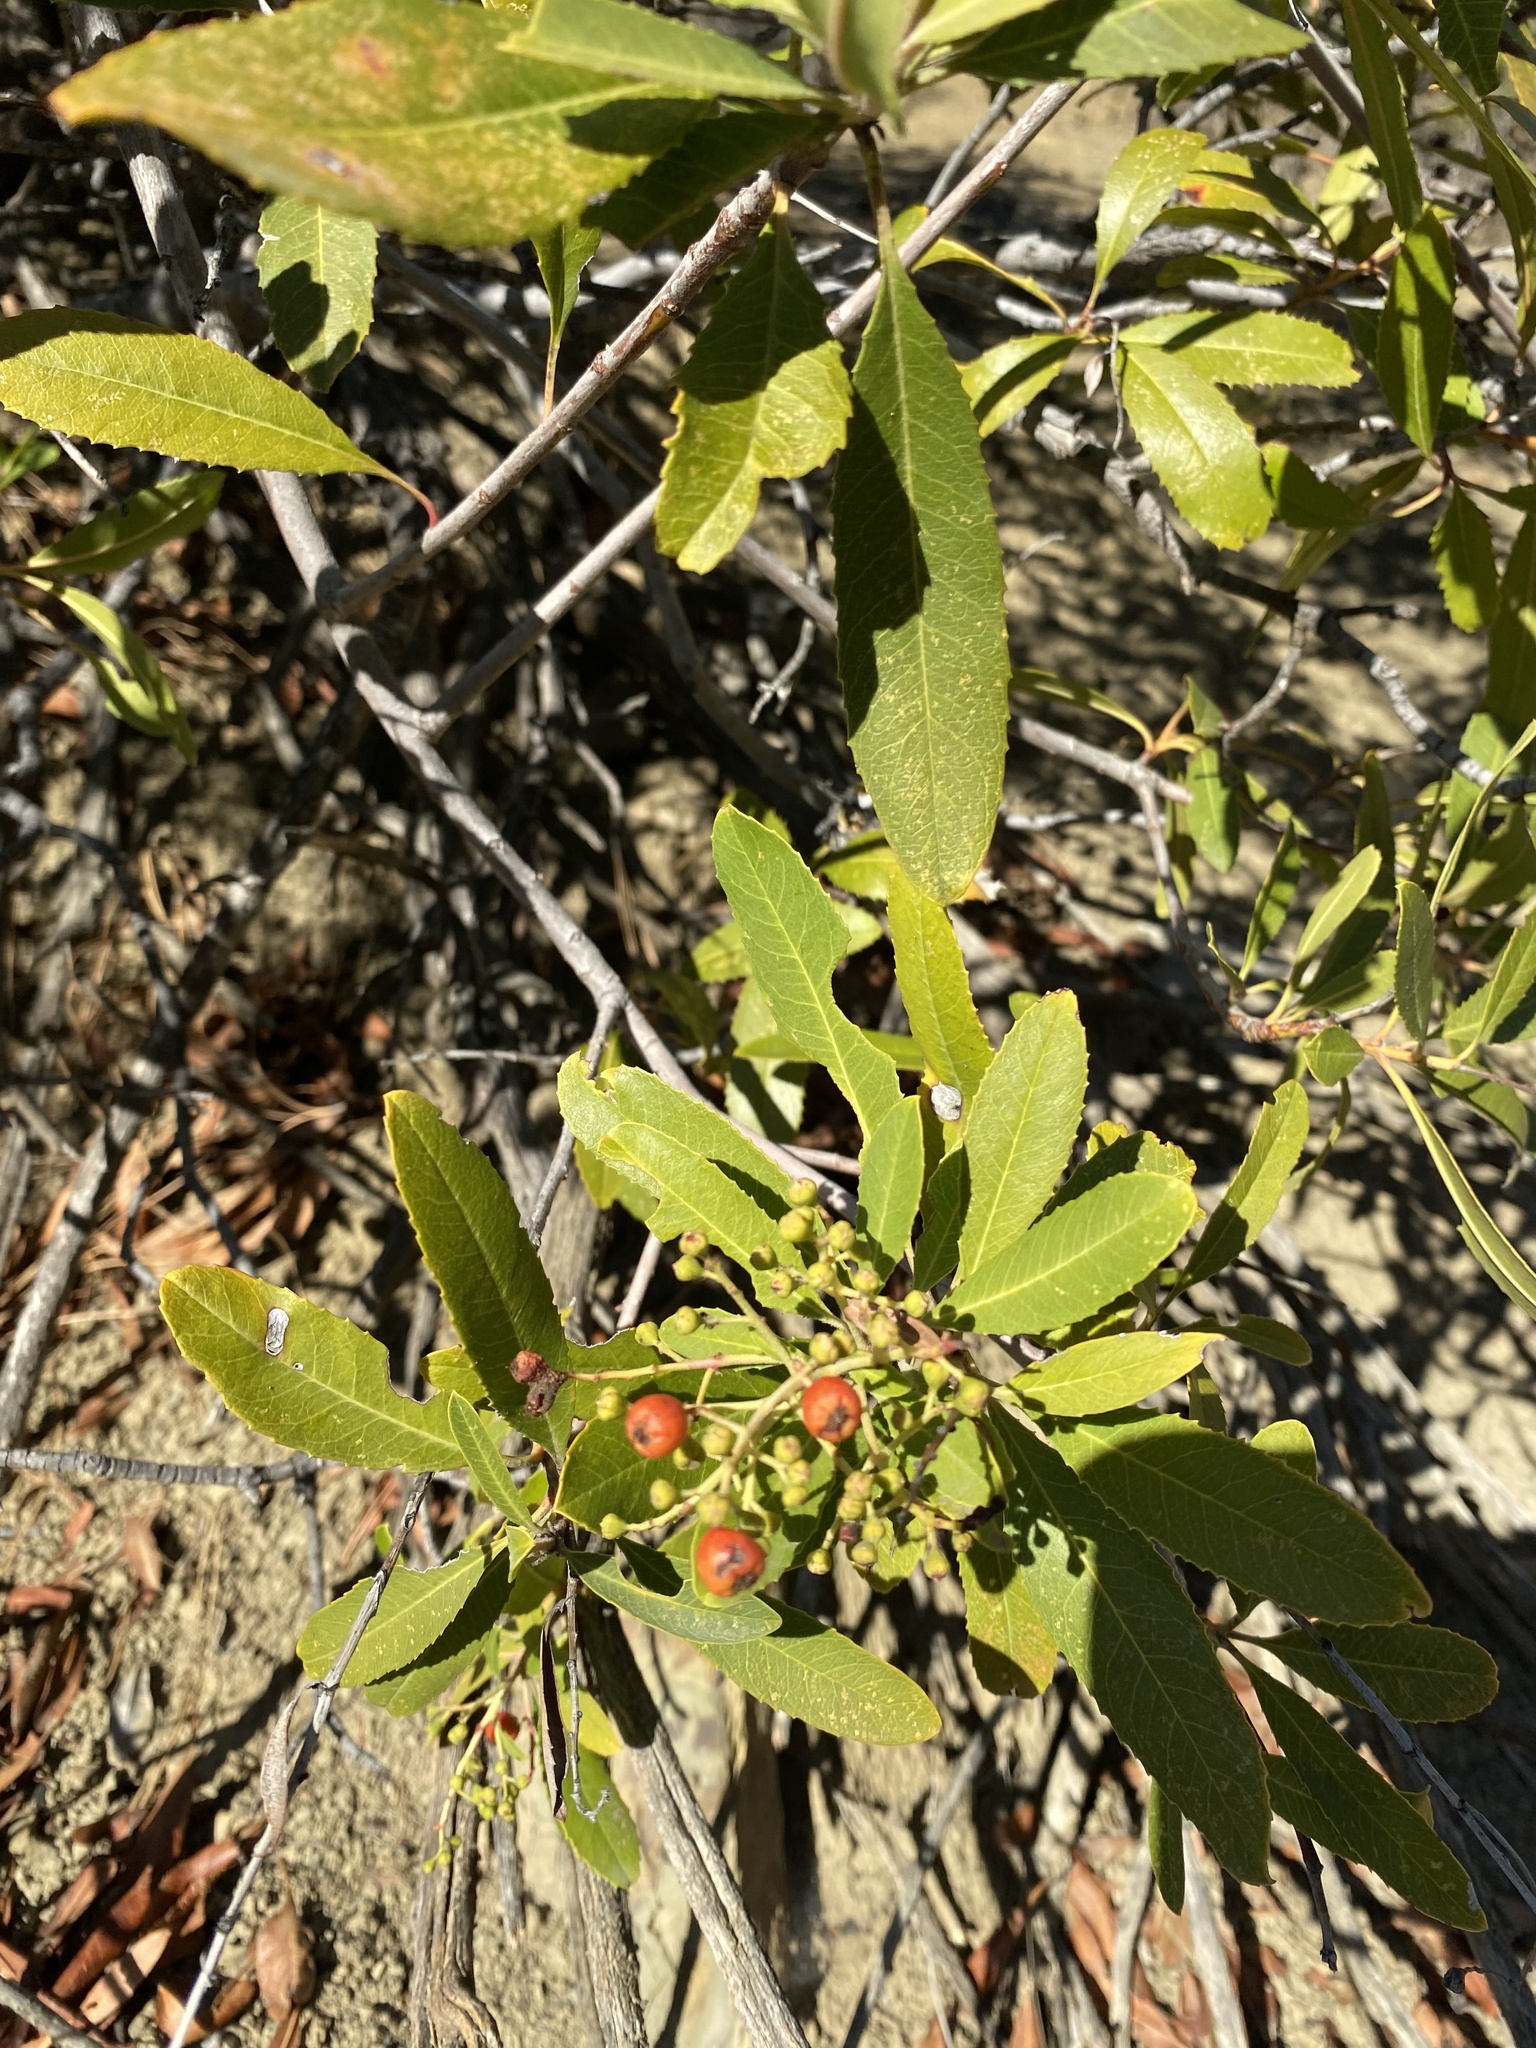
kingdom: Plantae
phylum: Tracheophyta
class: Magnoliopsida
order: Rosales
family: Rosaceae
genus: Heteromeles
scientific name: Heteromeles arbutifolia
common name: California-holly
